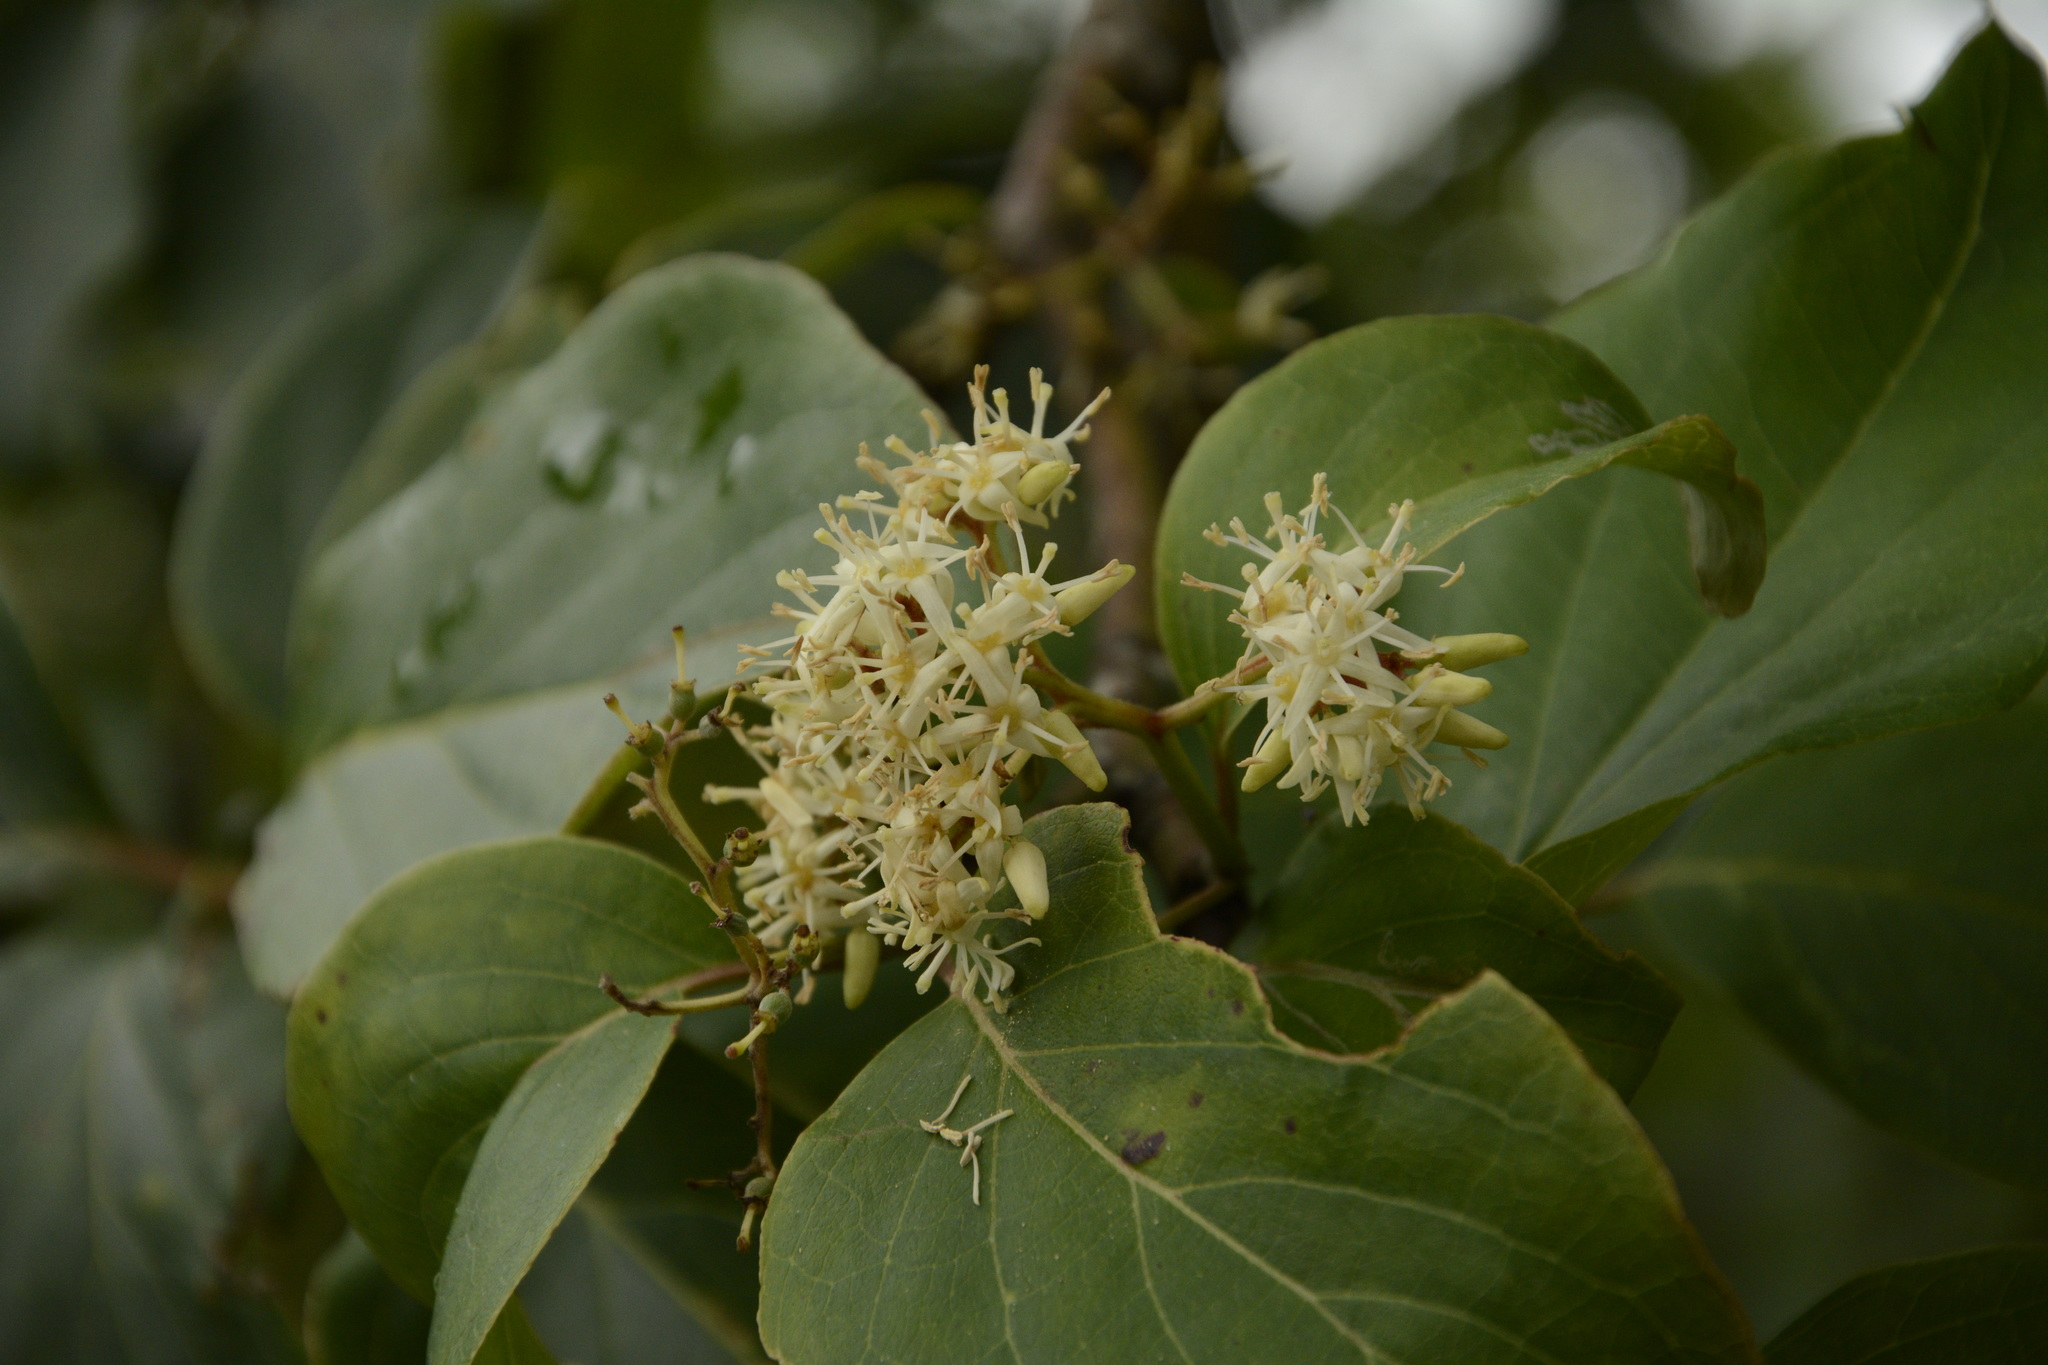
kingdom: Plantae
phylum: Tracheophyta
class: Magnoliopsida
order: Cornales
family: Cornaceae
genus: Cornus
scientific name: Cornus macrophylla
